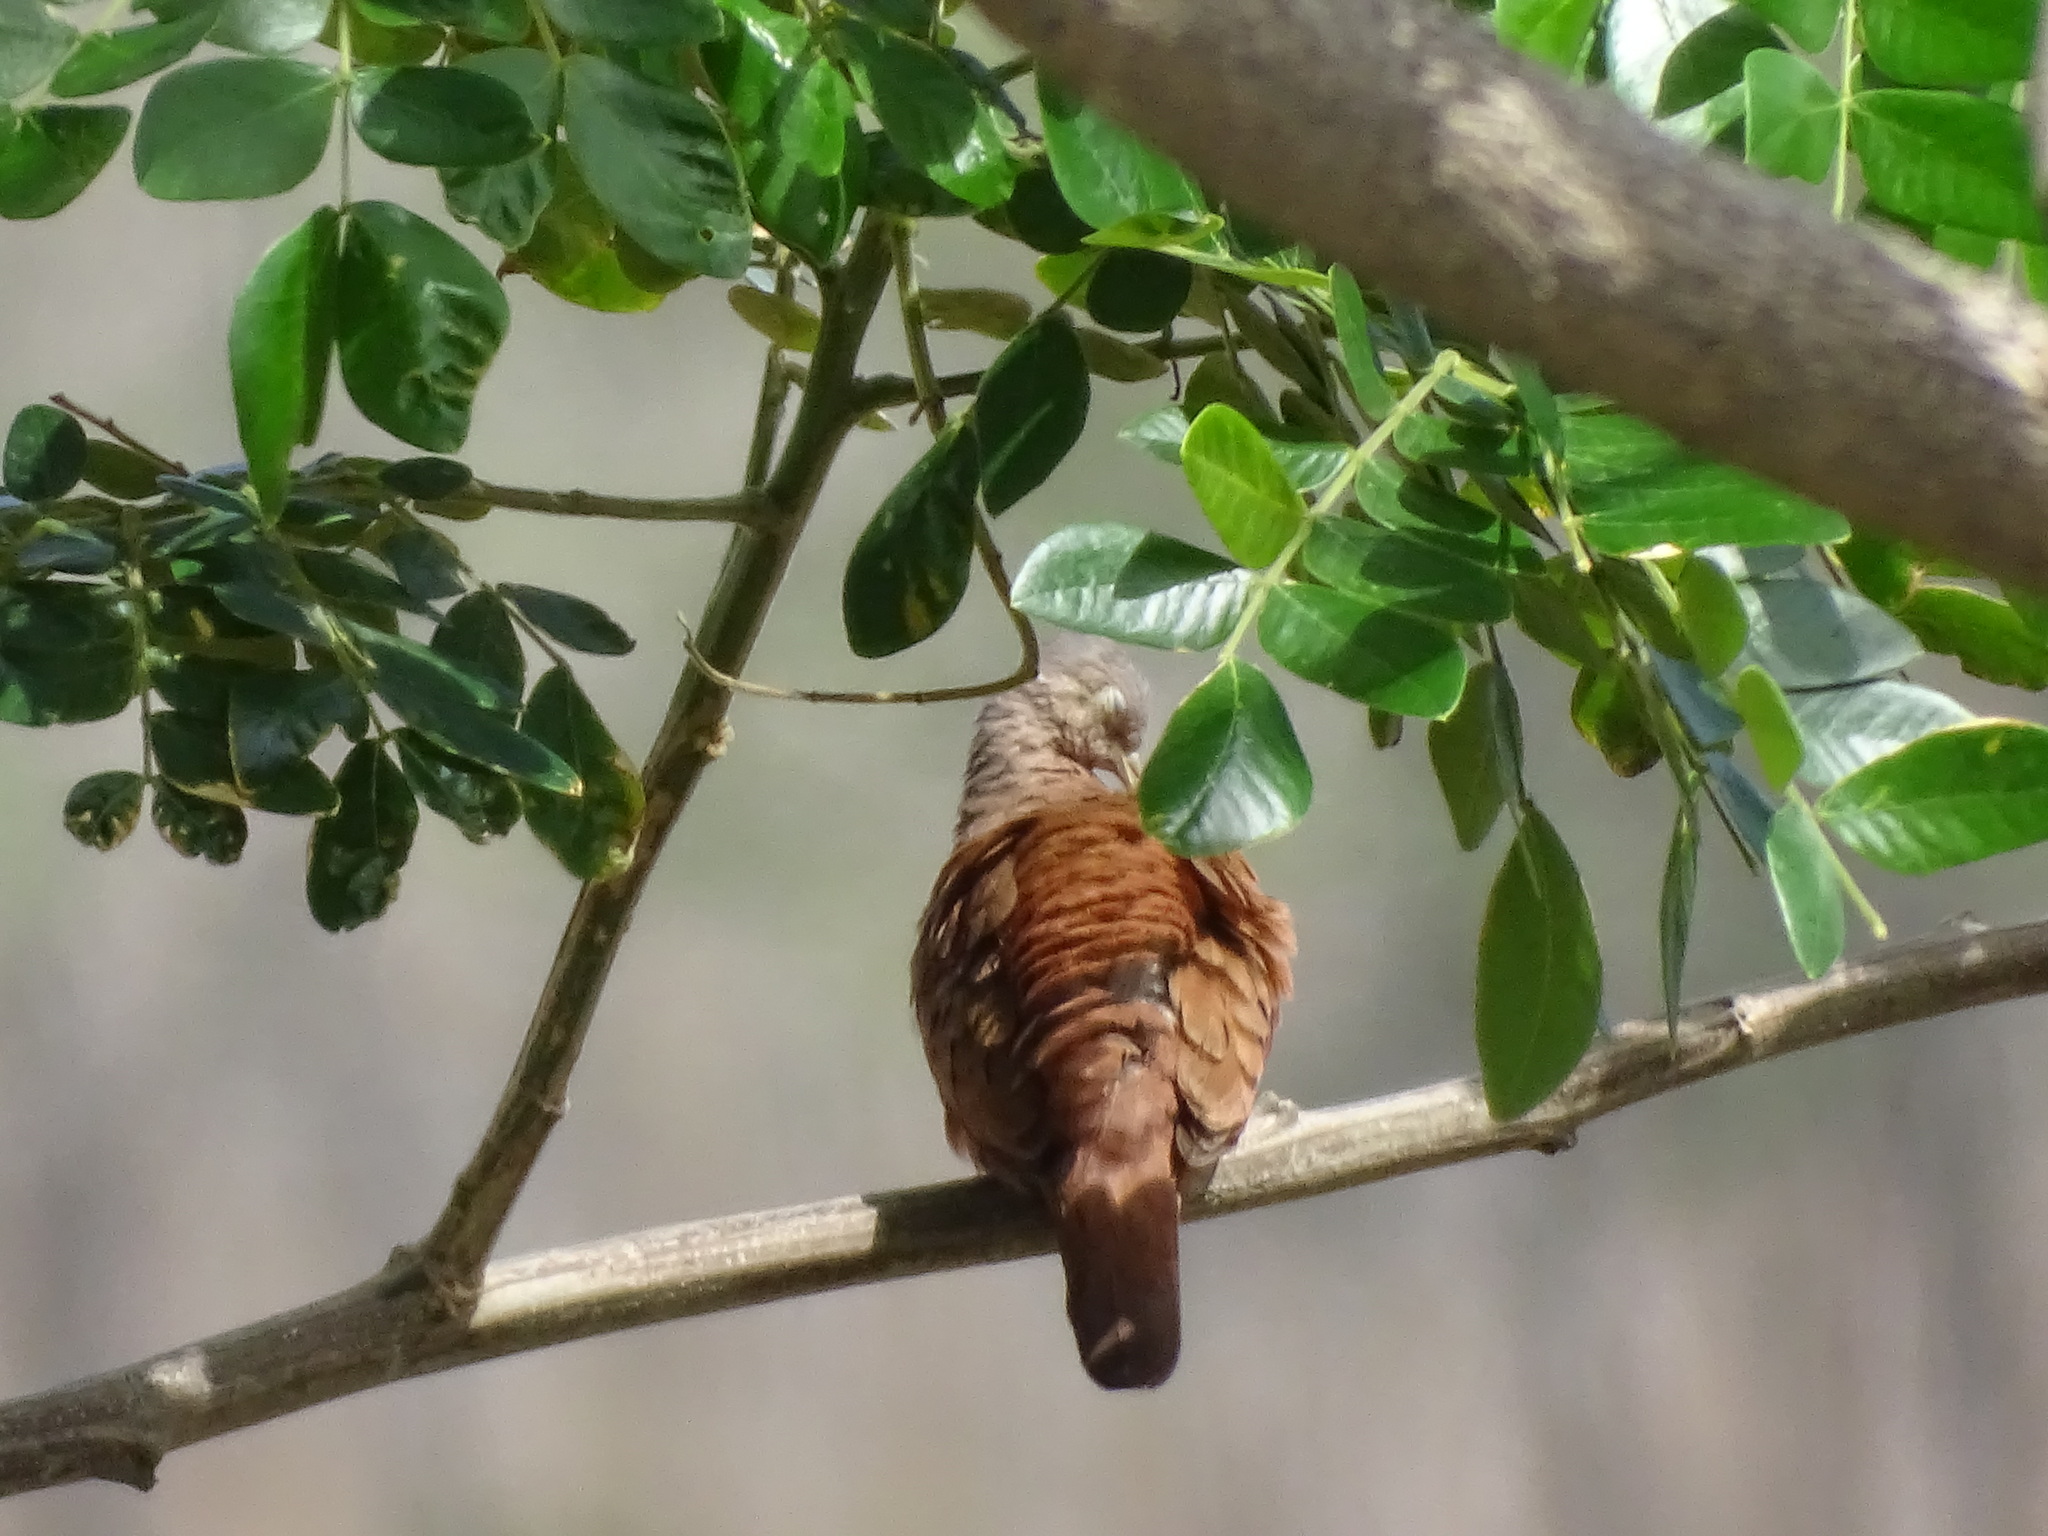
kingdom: Animalia
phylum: Chordata
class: Aves
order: Columbiformes
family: Columbidae
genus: Columbina
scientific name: Columbina talpacoti
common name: Ruddy ground dove
